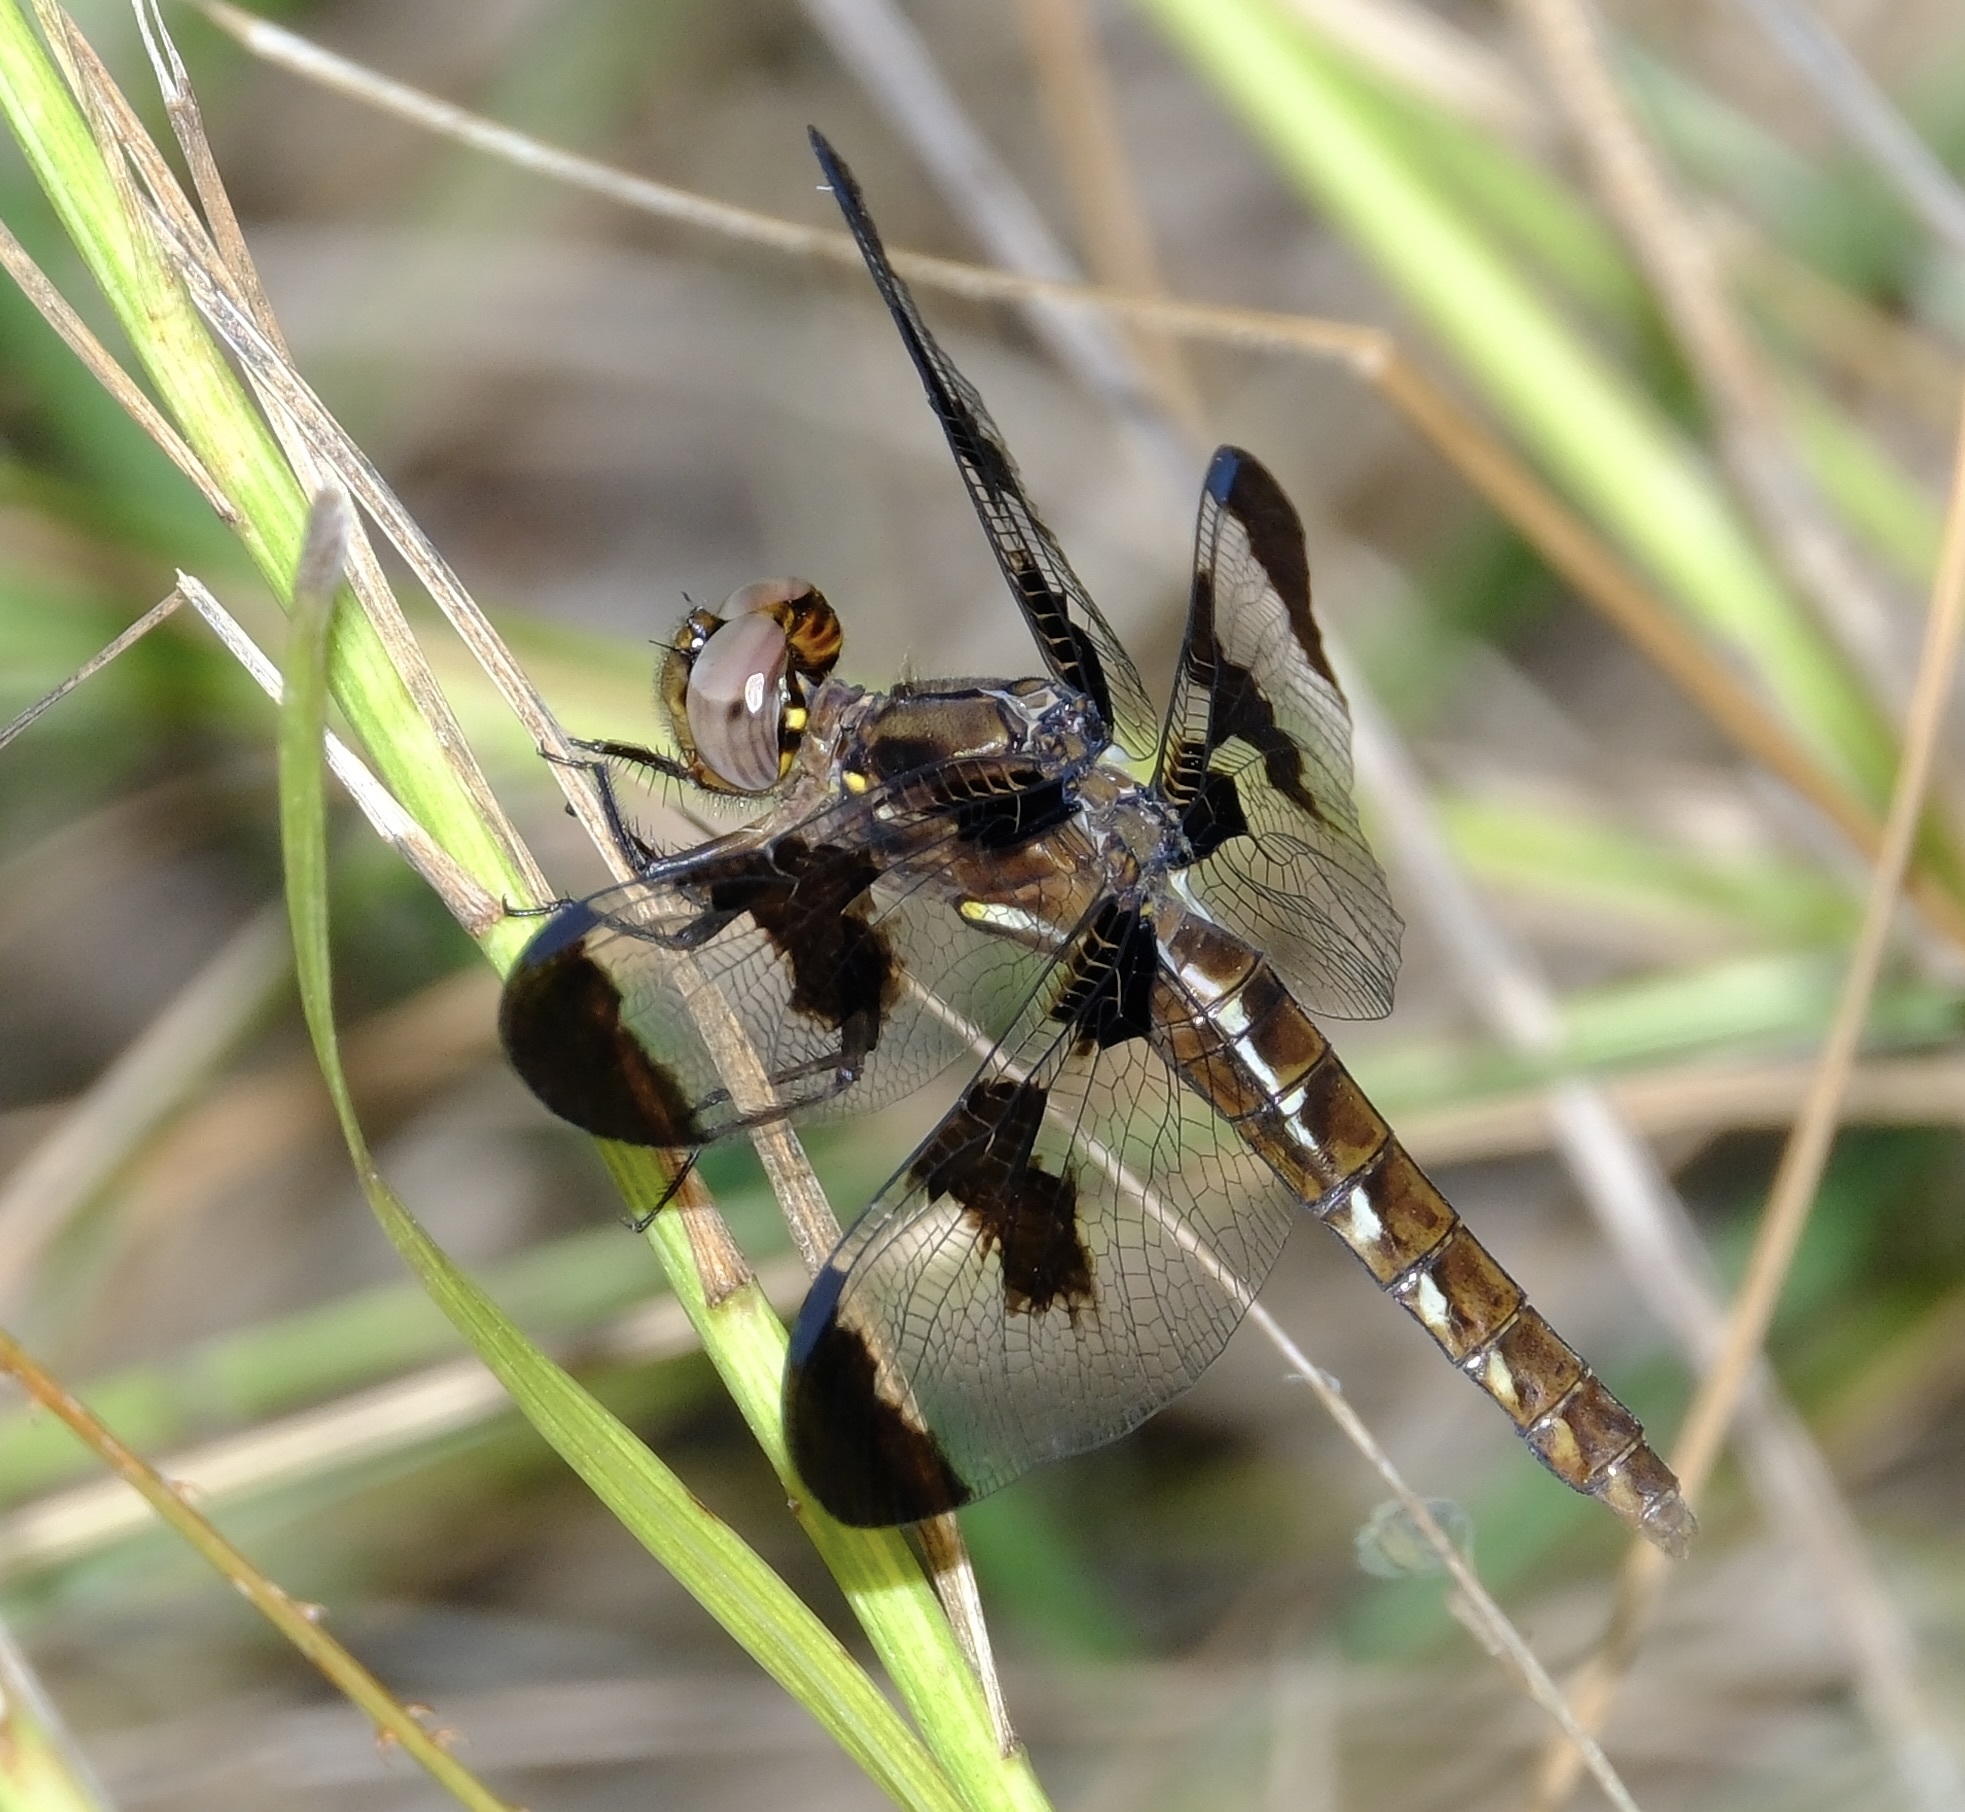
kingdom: Animalia
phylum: Arthropoda
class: Insecta
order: Odonata
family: Libellulidae
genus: Plathemis
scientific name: Plathemis lydia
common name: Common whitetail
